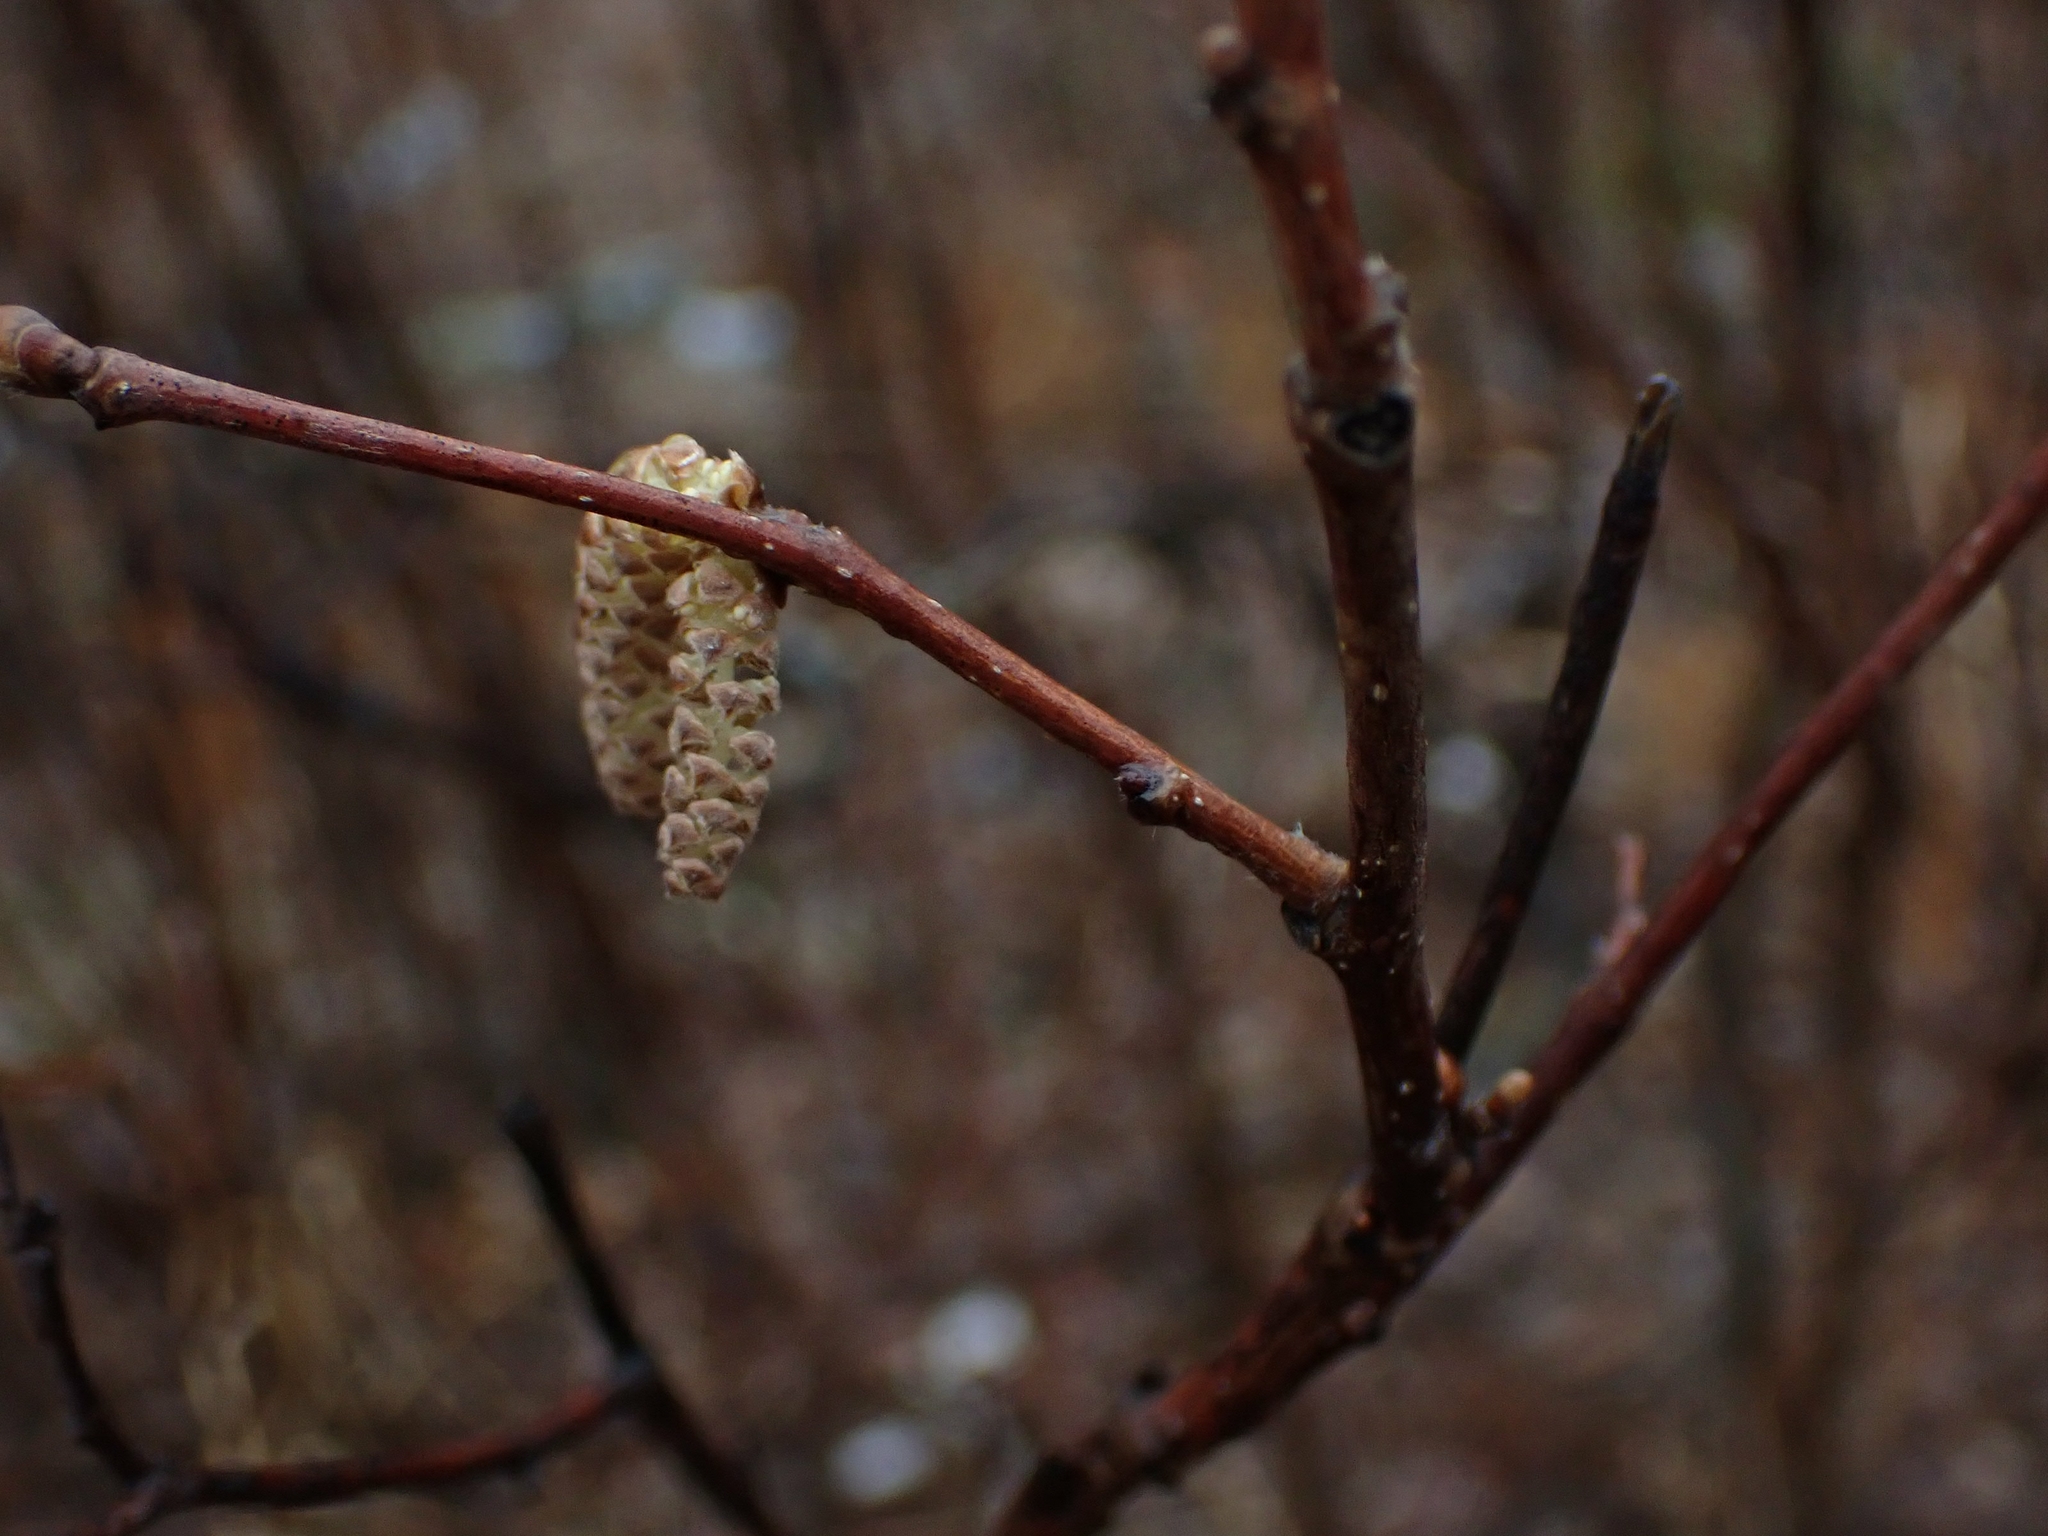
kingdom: Plantae
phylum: Tracheophyta
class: Magnoliopsida
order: Fagales
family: Betulaceae
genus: Corylus
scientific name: Corylus cornuta
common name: Beaked hazel
